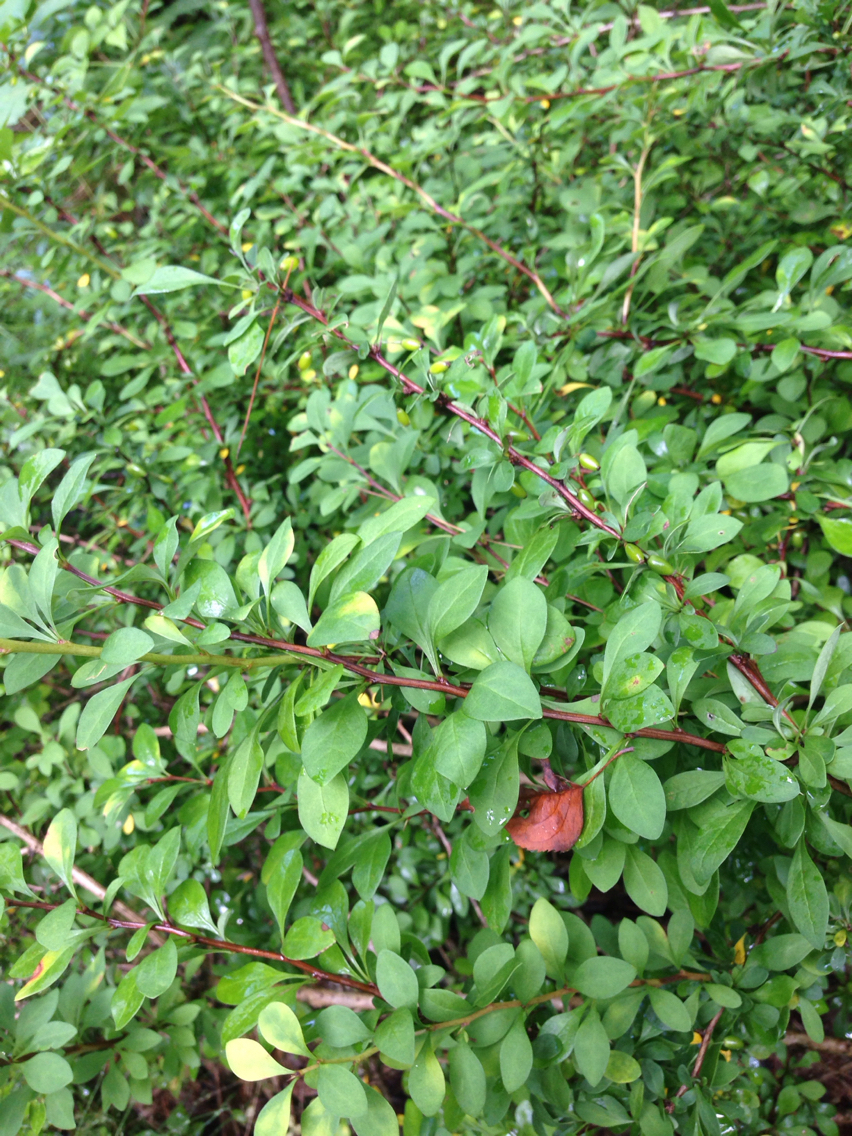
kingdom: Plantae
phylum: Tracheophyta
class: Magnoliopsida
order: Ranunculales
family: Berberidaceae
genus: Berberis
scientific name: Berberis thunbergii
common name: Japanese barberry
